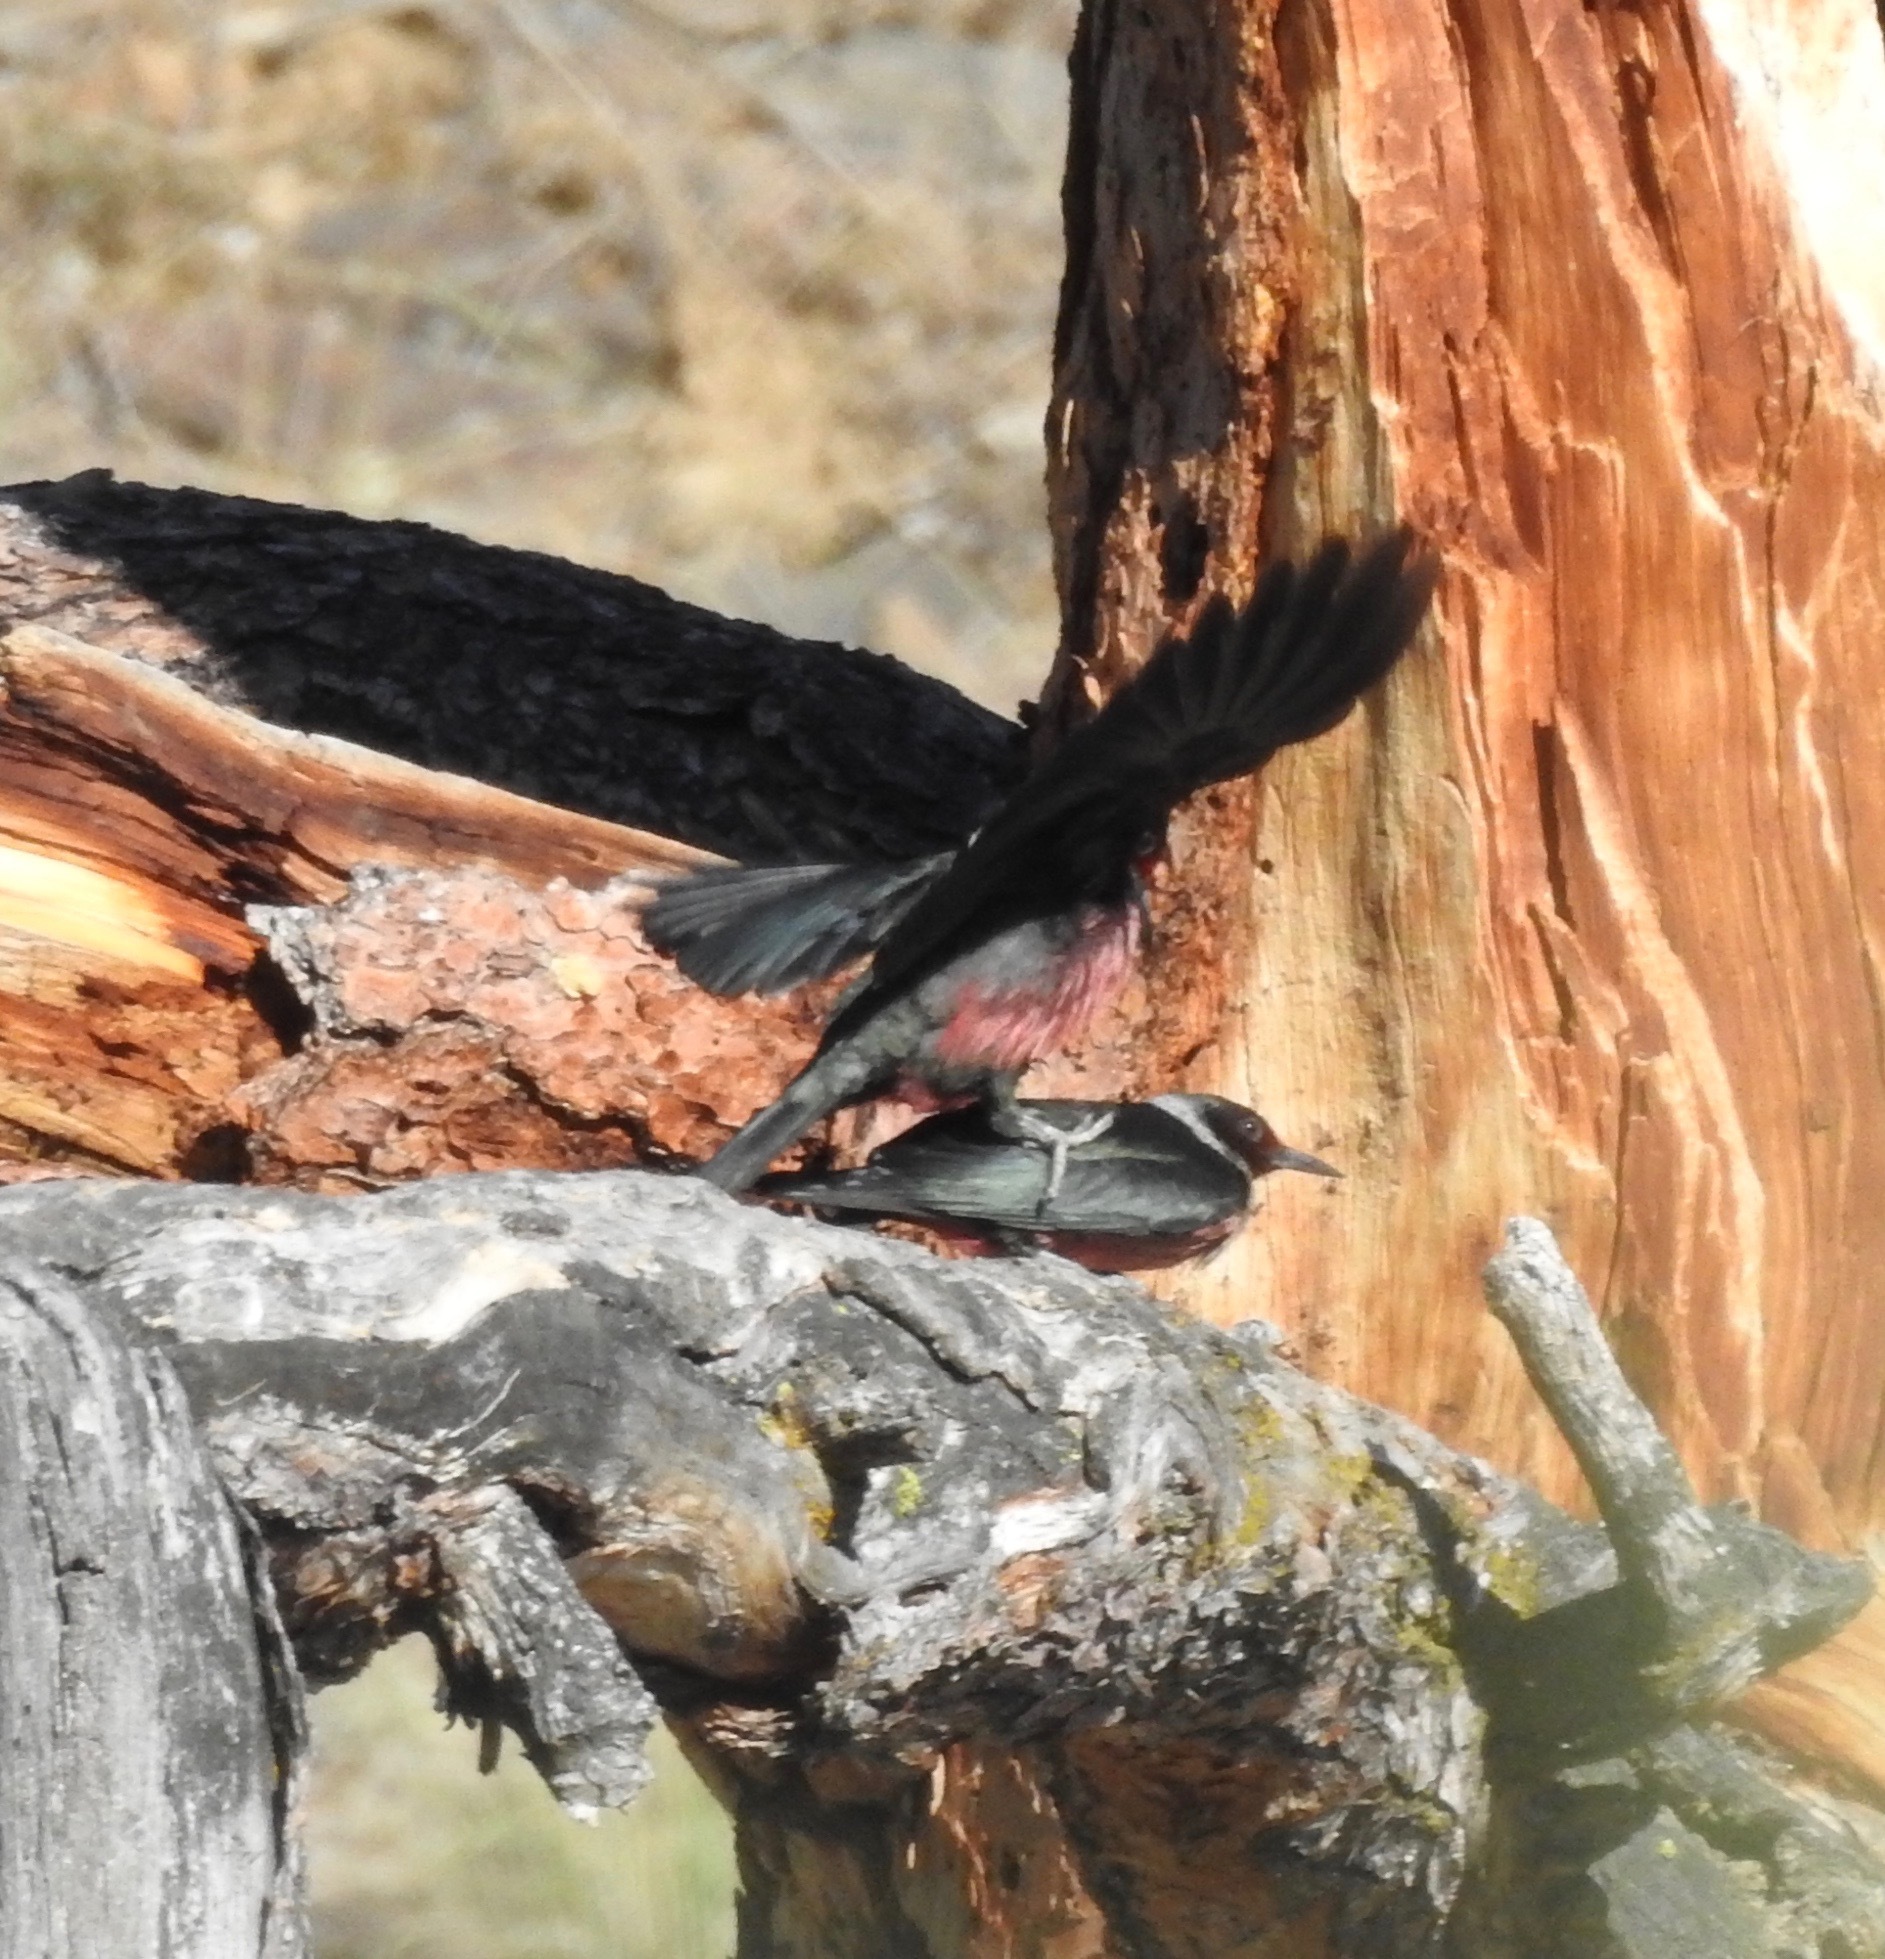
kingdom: Animalia
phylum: Chordata
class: Aves
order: Piciformes
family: Picidae
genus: Melanerpes
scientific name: Melanerpes lewis
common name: Lewis's woodpecker
